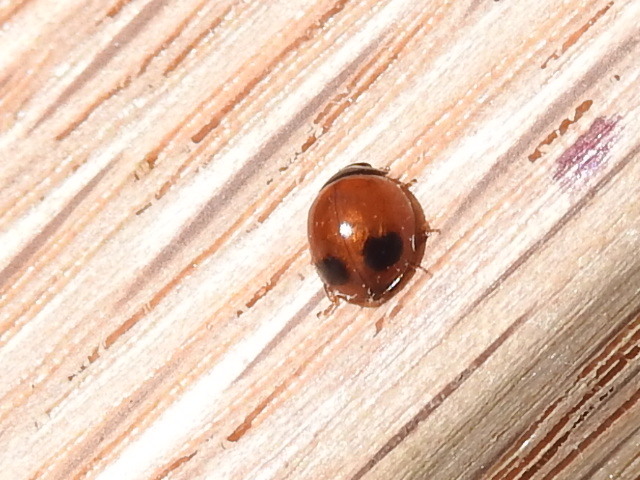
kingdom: Animalia
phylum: Arthropoda
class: Insecta
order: Coleoptera
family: Coccinellidae
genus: Exochomus
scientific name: Exochomus childreni
